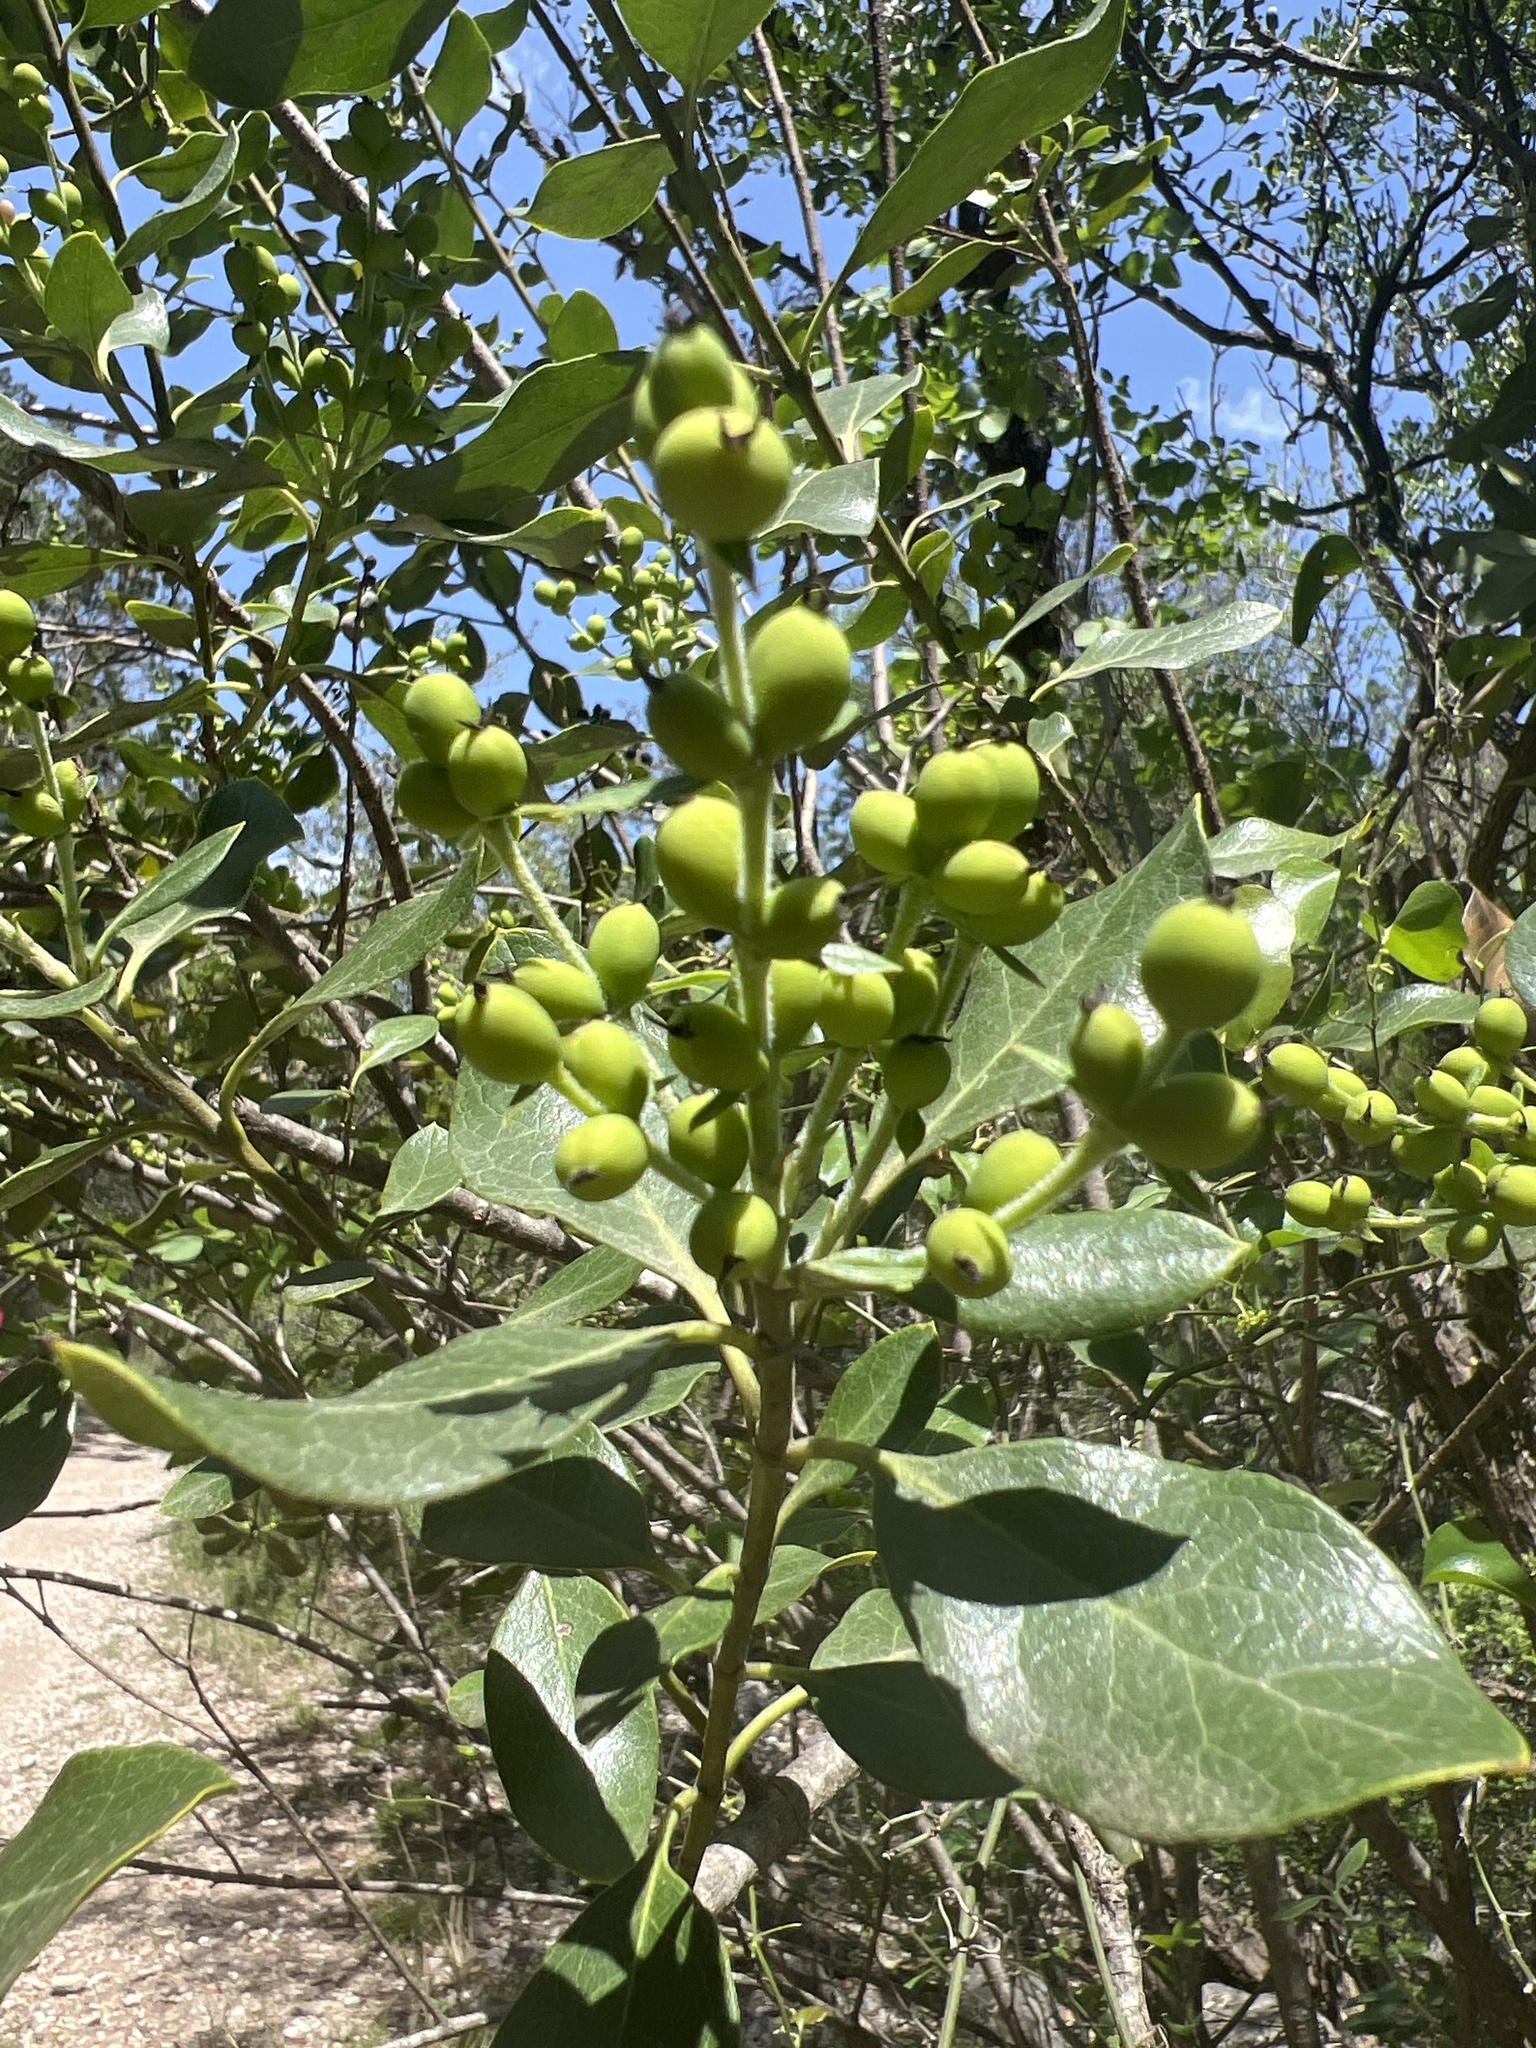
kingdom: Plantae
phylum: Tracheophyta
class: Magnoliopsida
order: Garryales
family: Garryaceae
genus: Garrya
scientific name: Garrya lindheimeri
